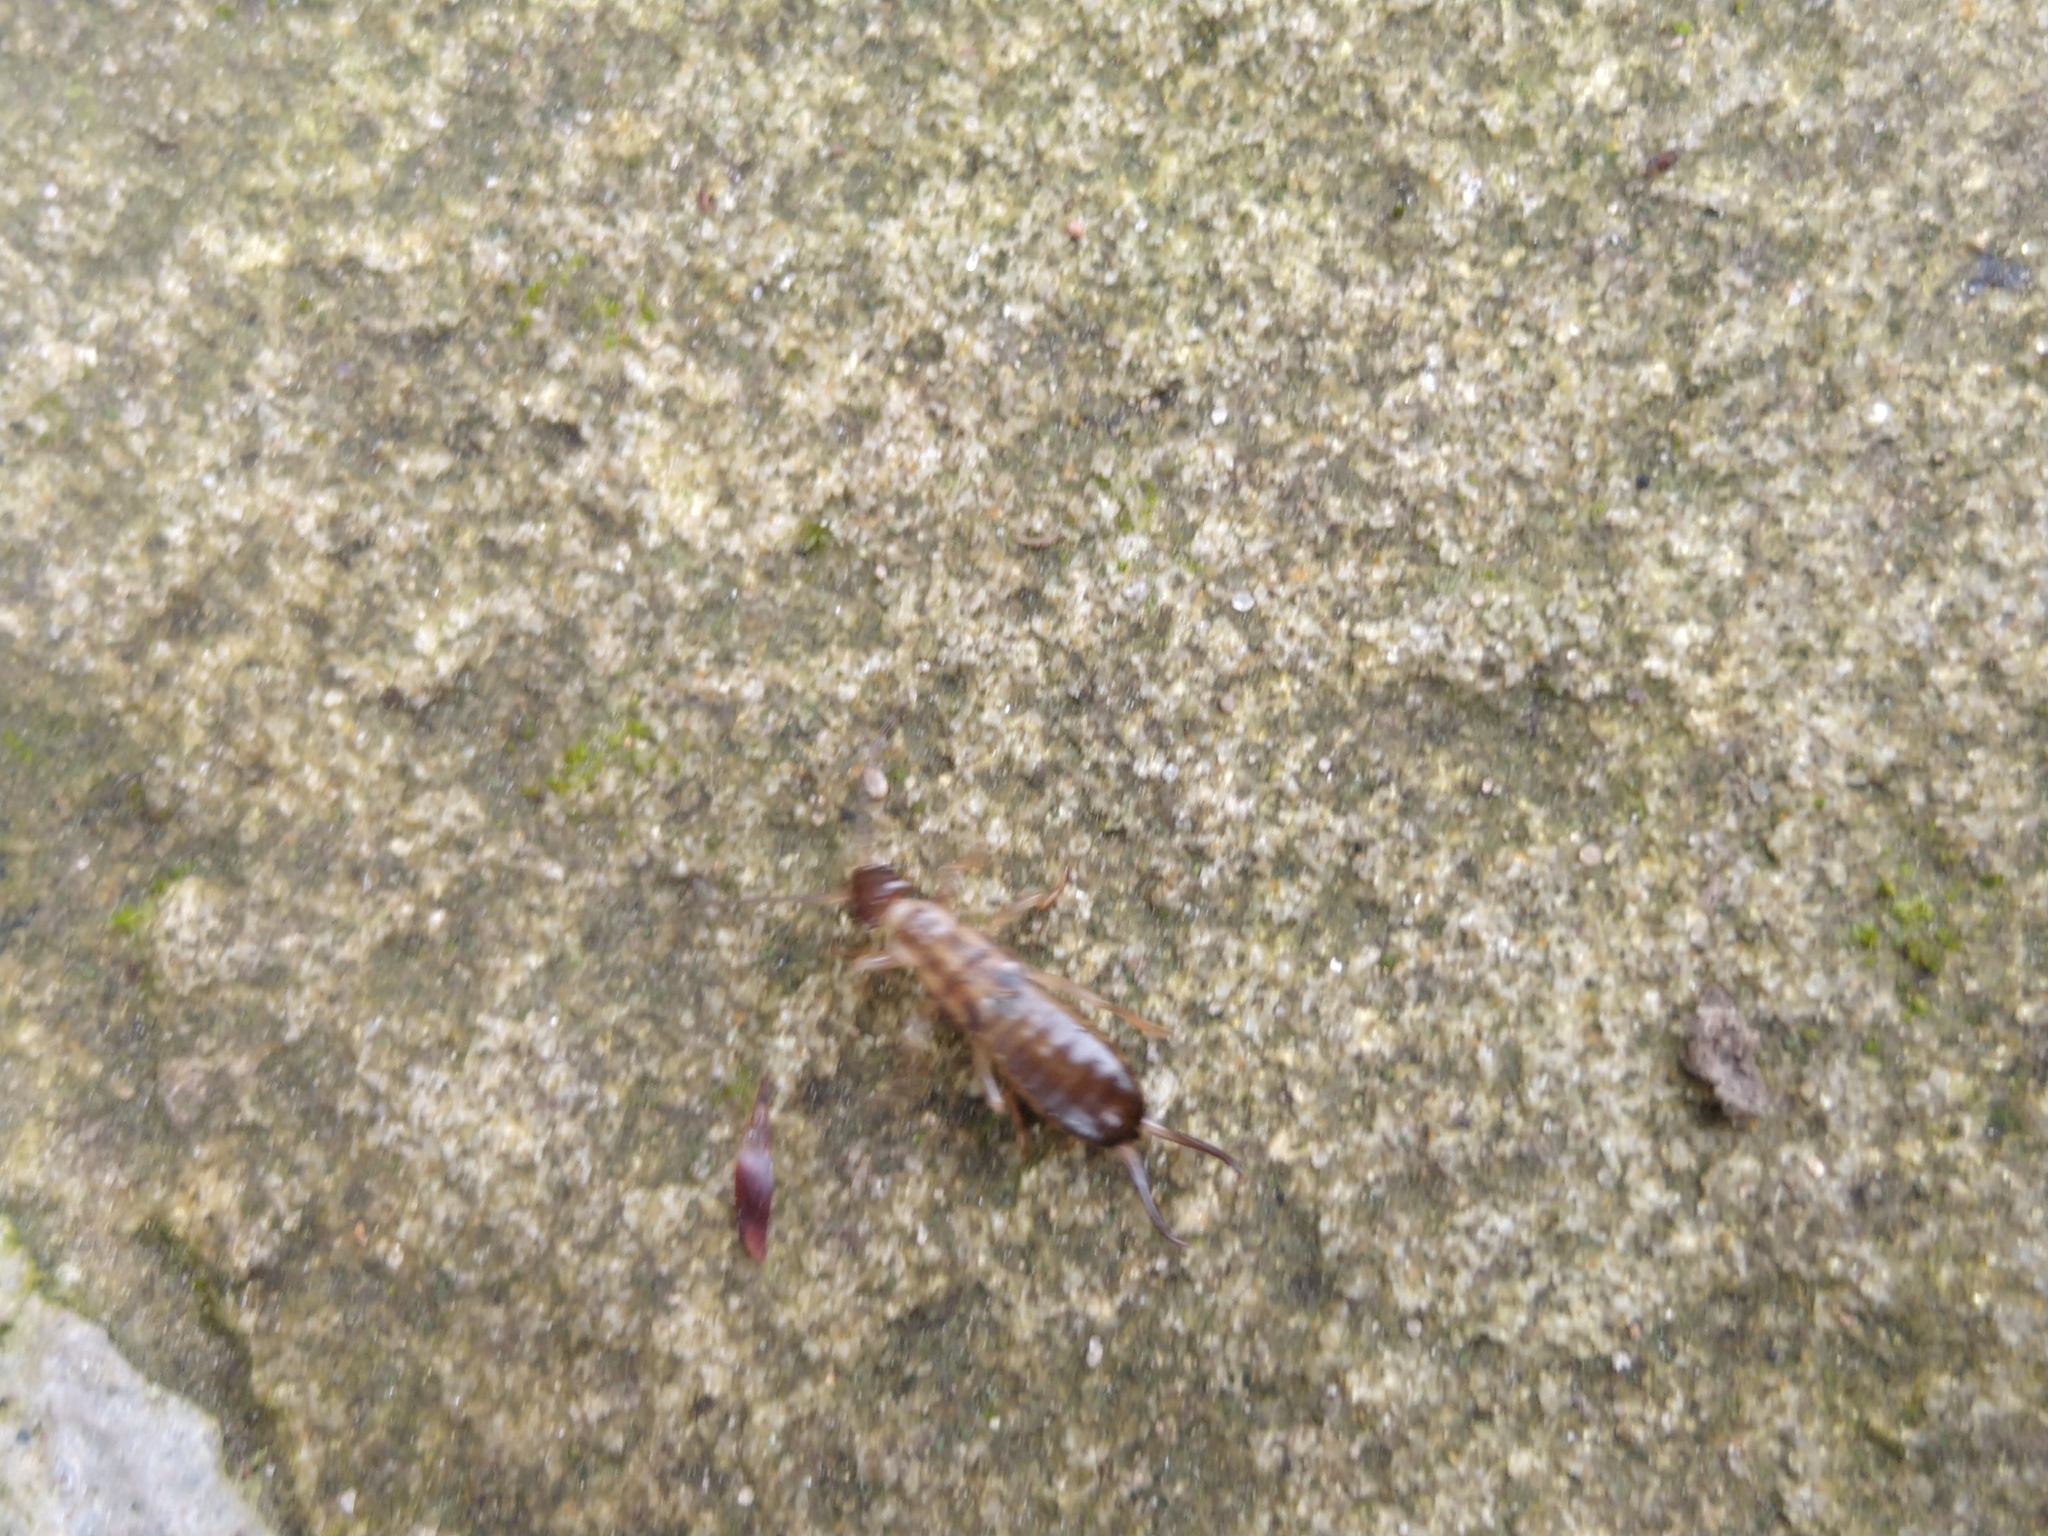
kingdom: Animalia
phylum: Arthropoda
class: Insecta
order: Dermaptera
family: Forficulidae
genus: Forficula
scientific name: Forficula
